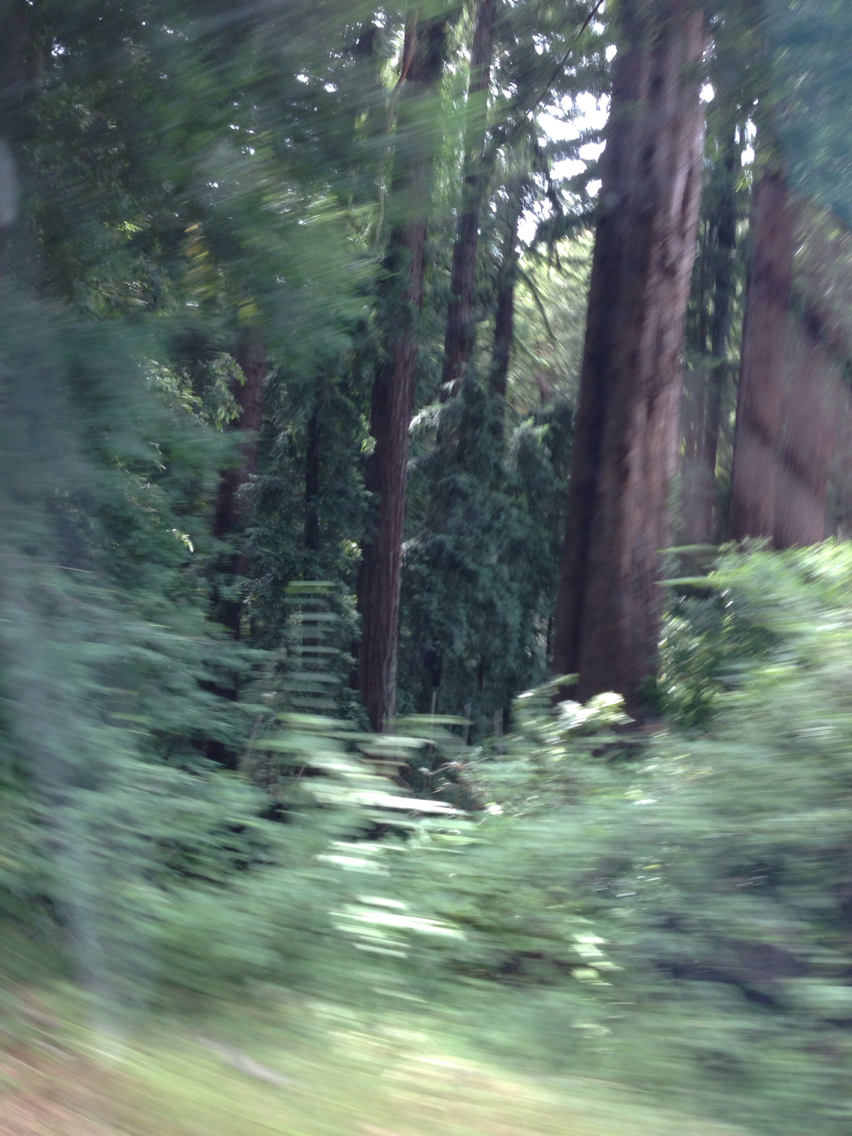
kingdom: Plantae
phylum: Tracheophyta
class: Pinopsida
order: Pinales
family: Cupressaceae
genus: Sequoia
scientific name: Sequoia sempervirens
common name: Coast redwood
